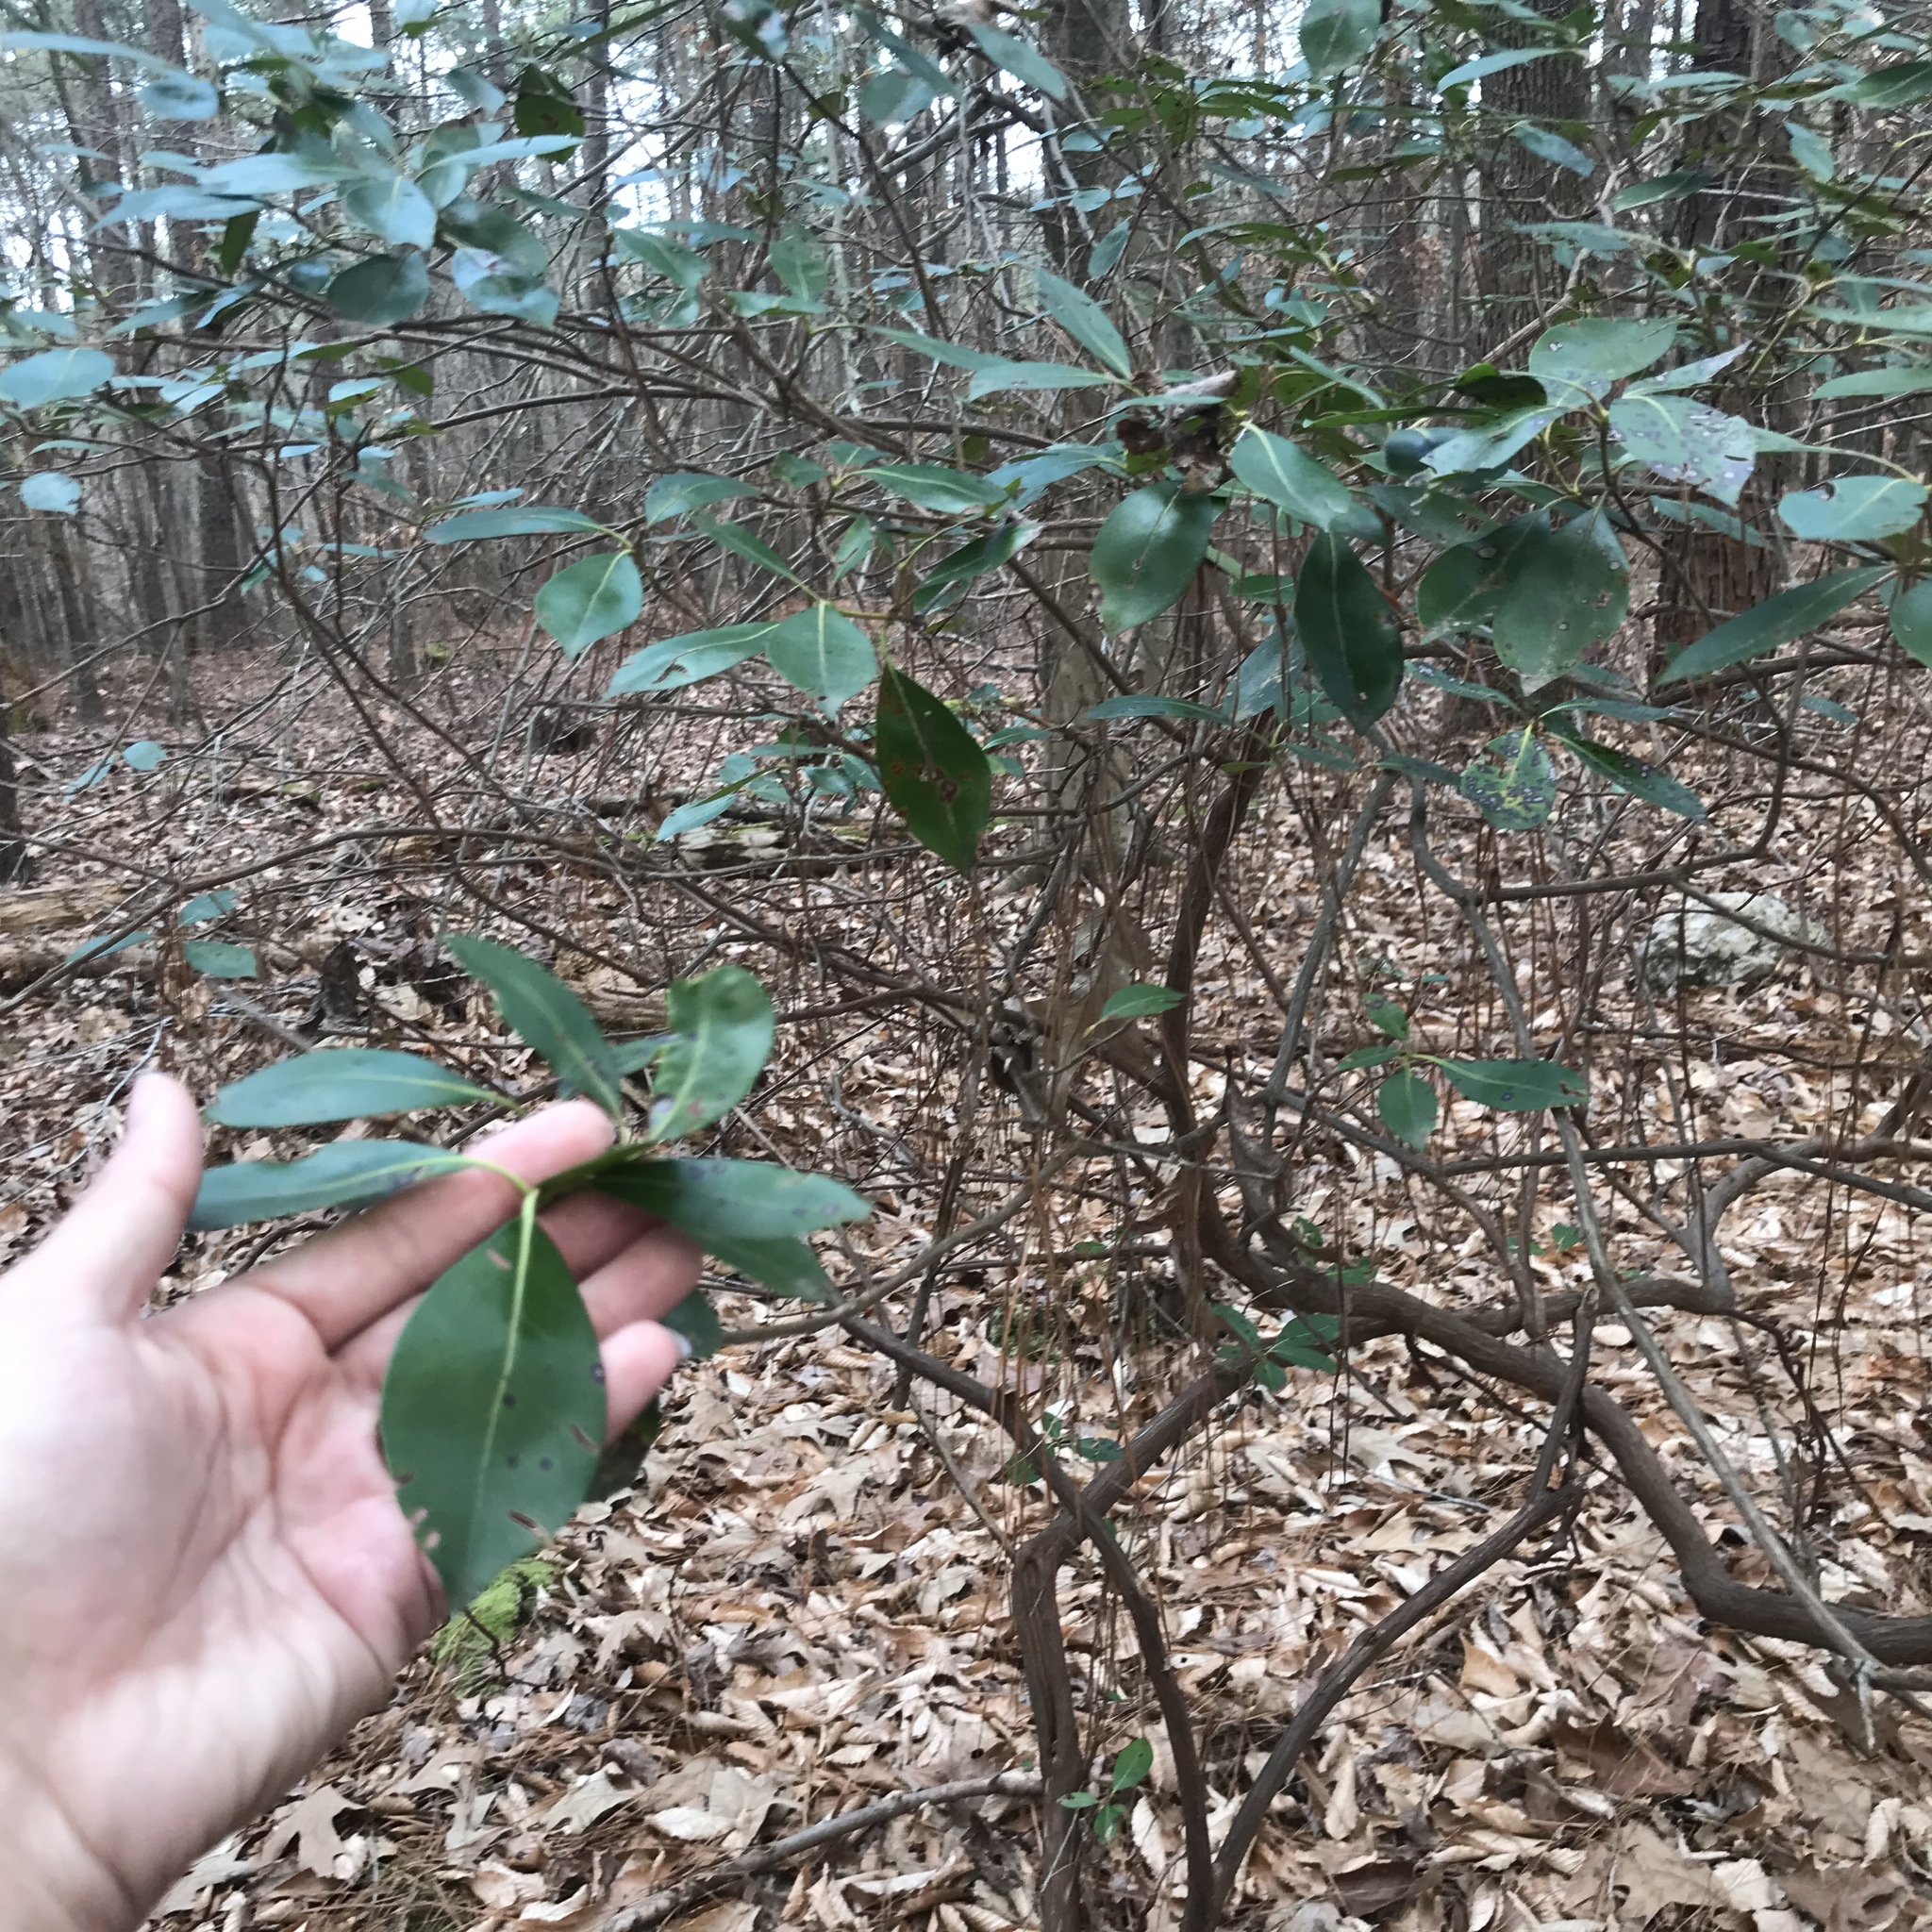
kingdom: Plantae
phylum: Tracheophyta
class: Magnoliopsida
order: Ericales
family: Ericaceae
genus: Kalmia
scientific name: Kalmia latifolia
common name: Mountain-laurel
